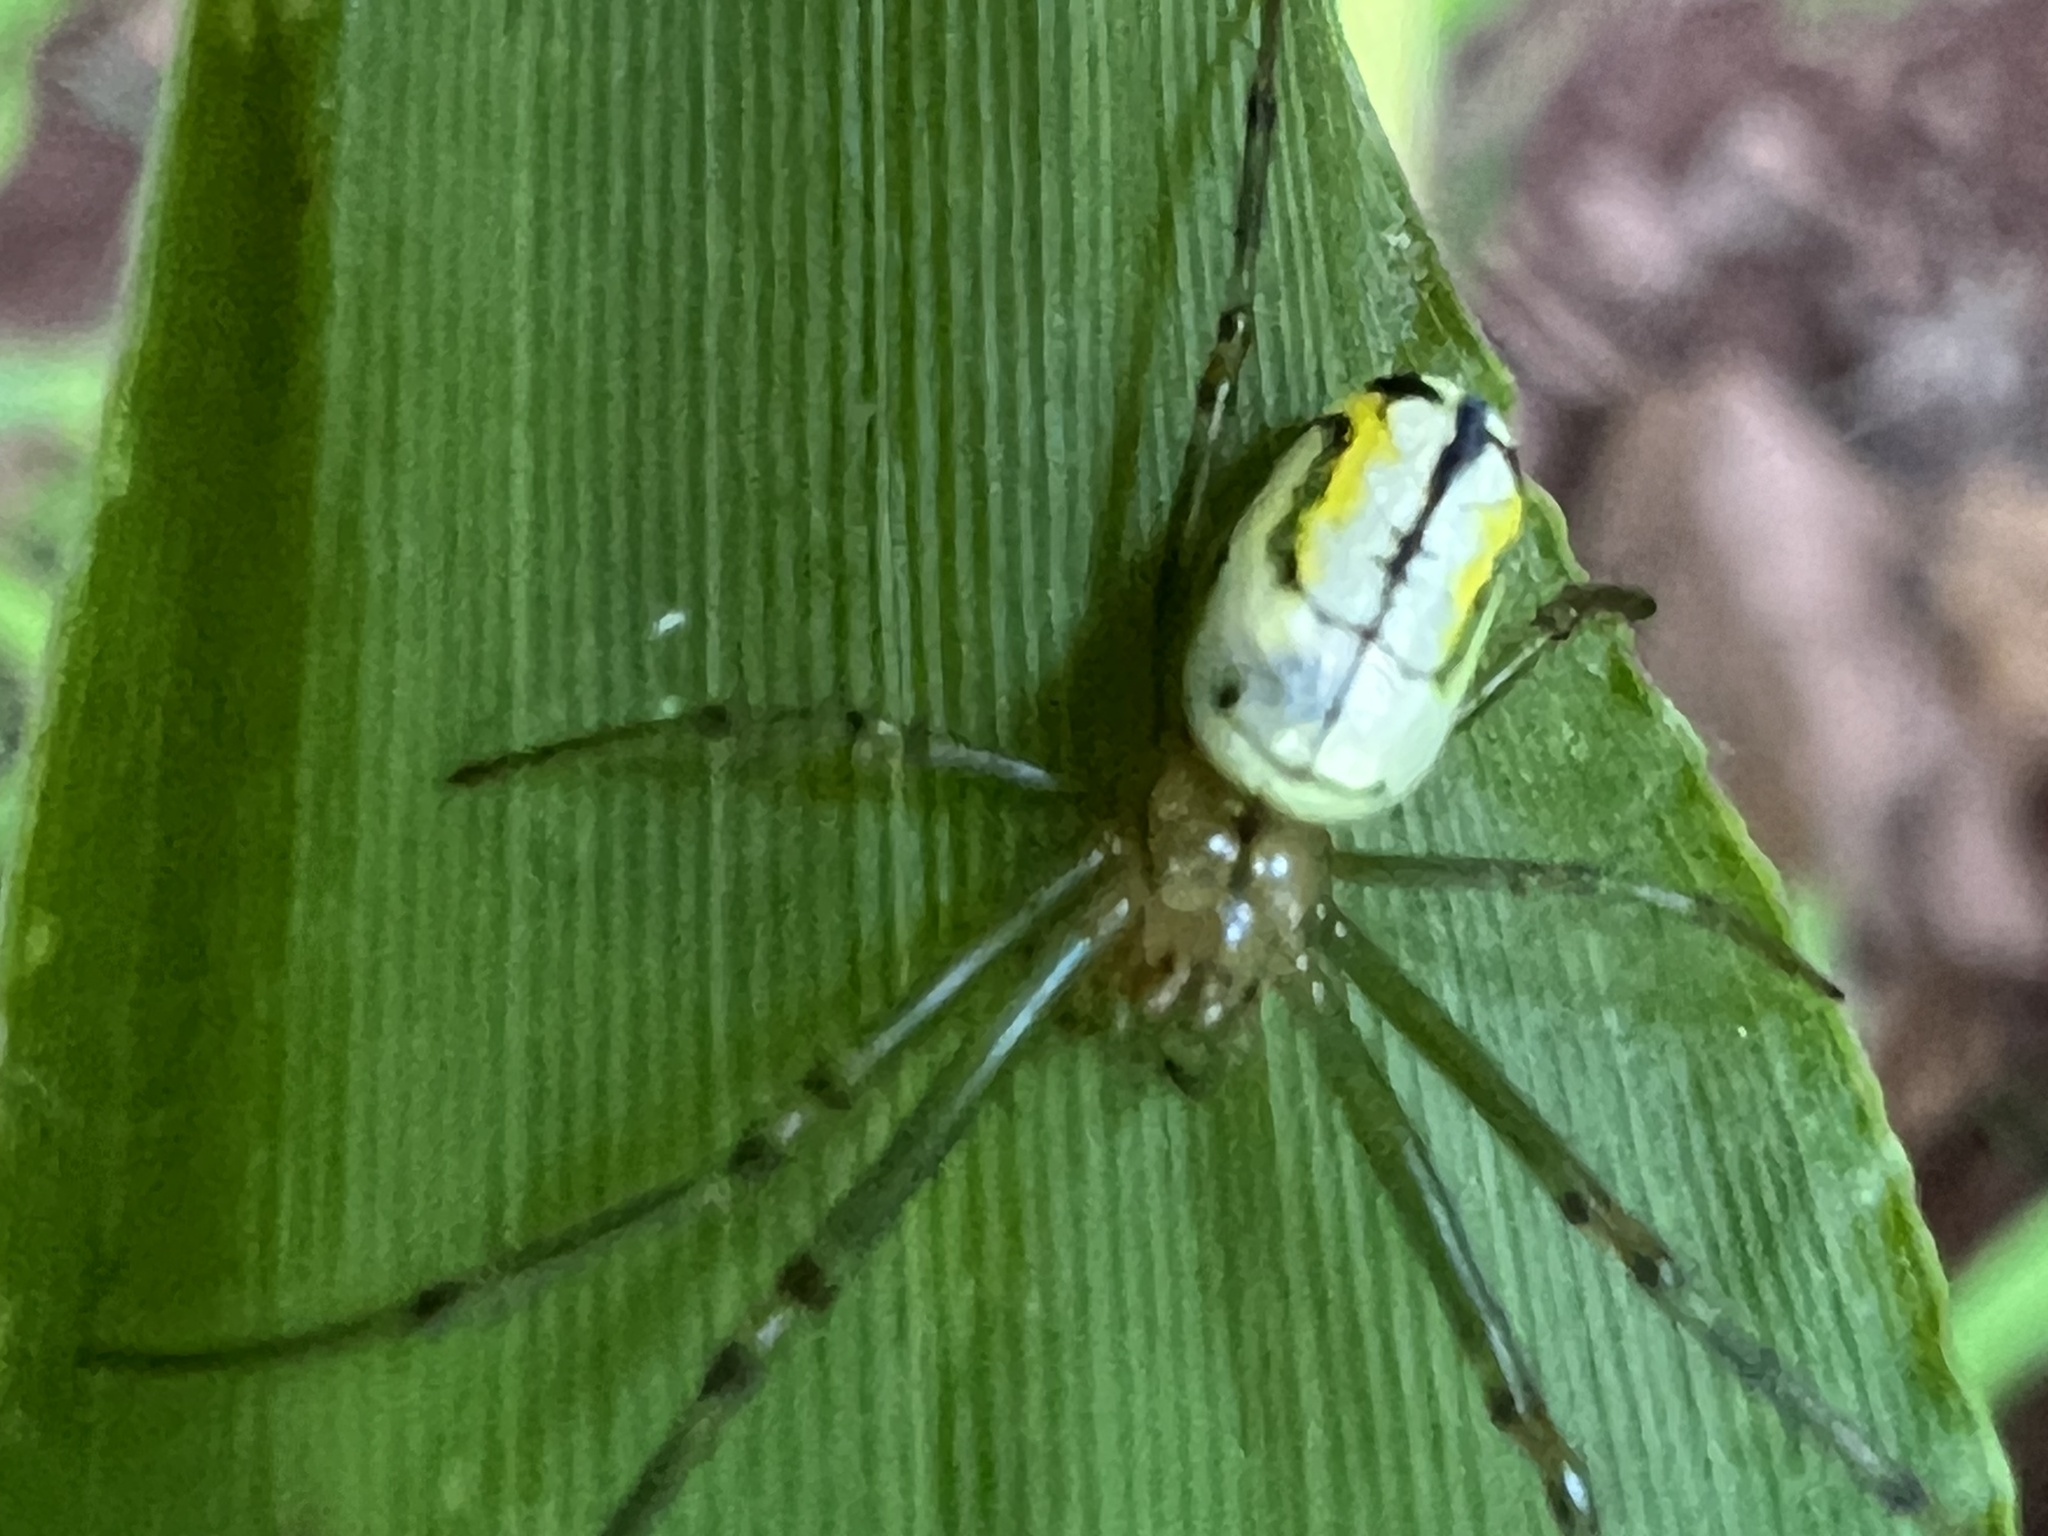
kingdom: Animalia
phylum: Arthropoda
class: Arachnida
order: Araneae
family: Tetragnathidae
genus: Leucauge
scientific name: Leucauge venusta
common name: Longjawed orb weavers
